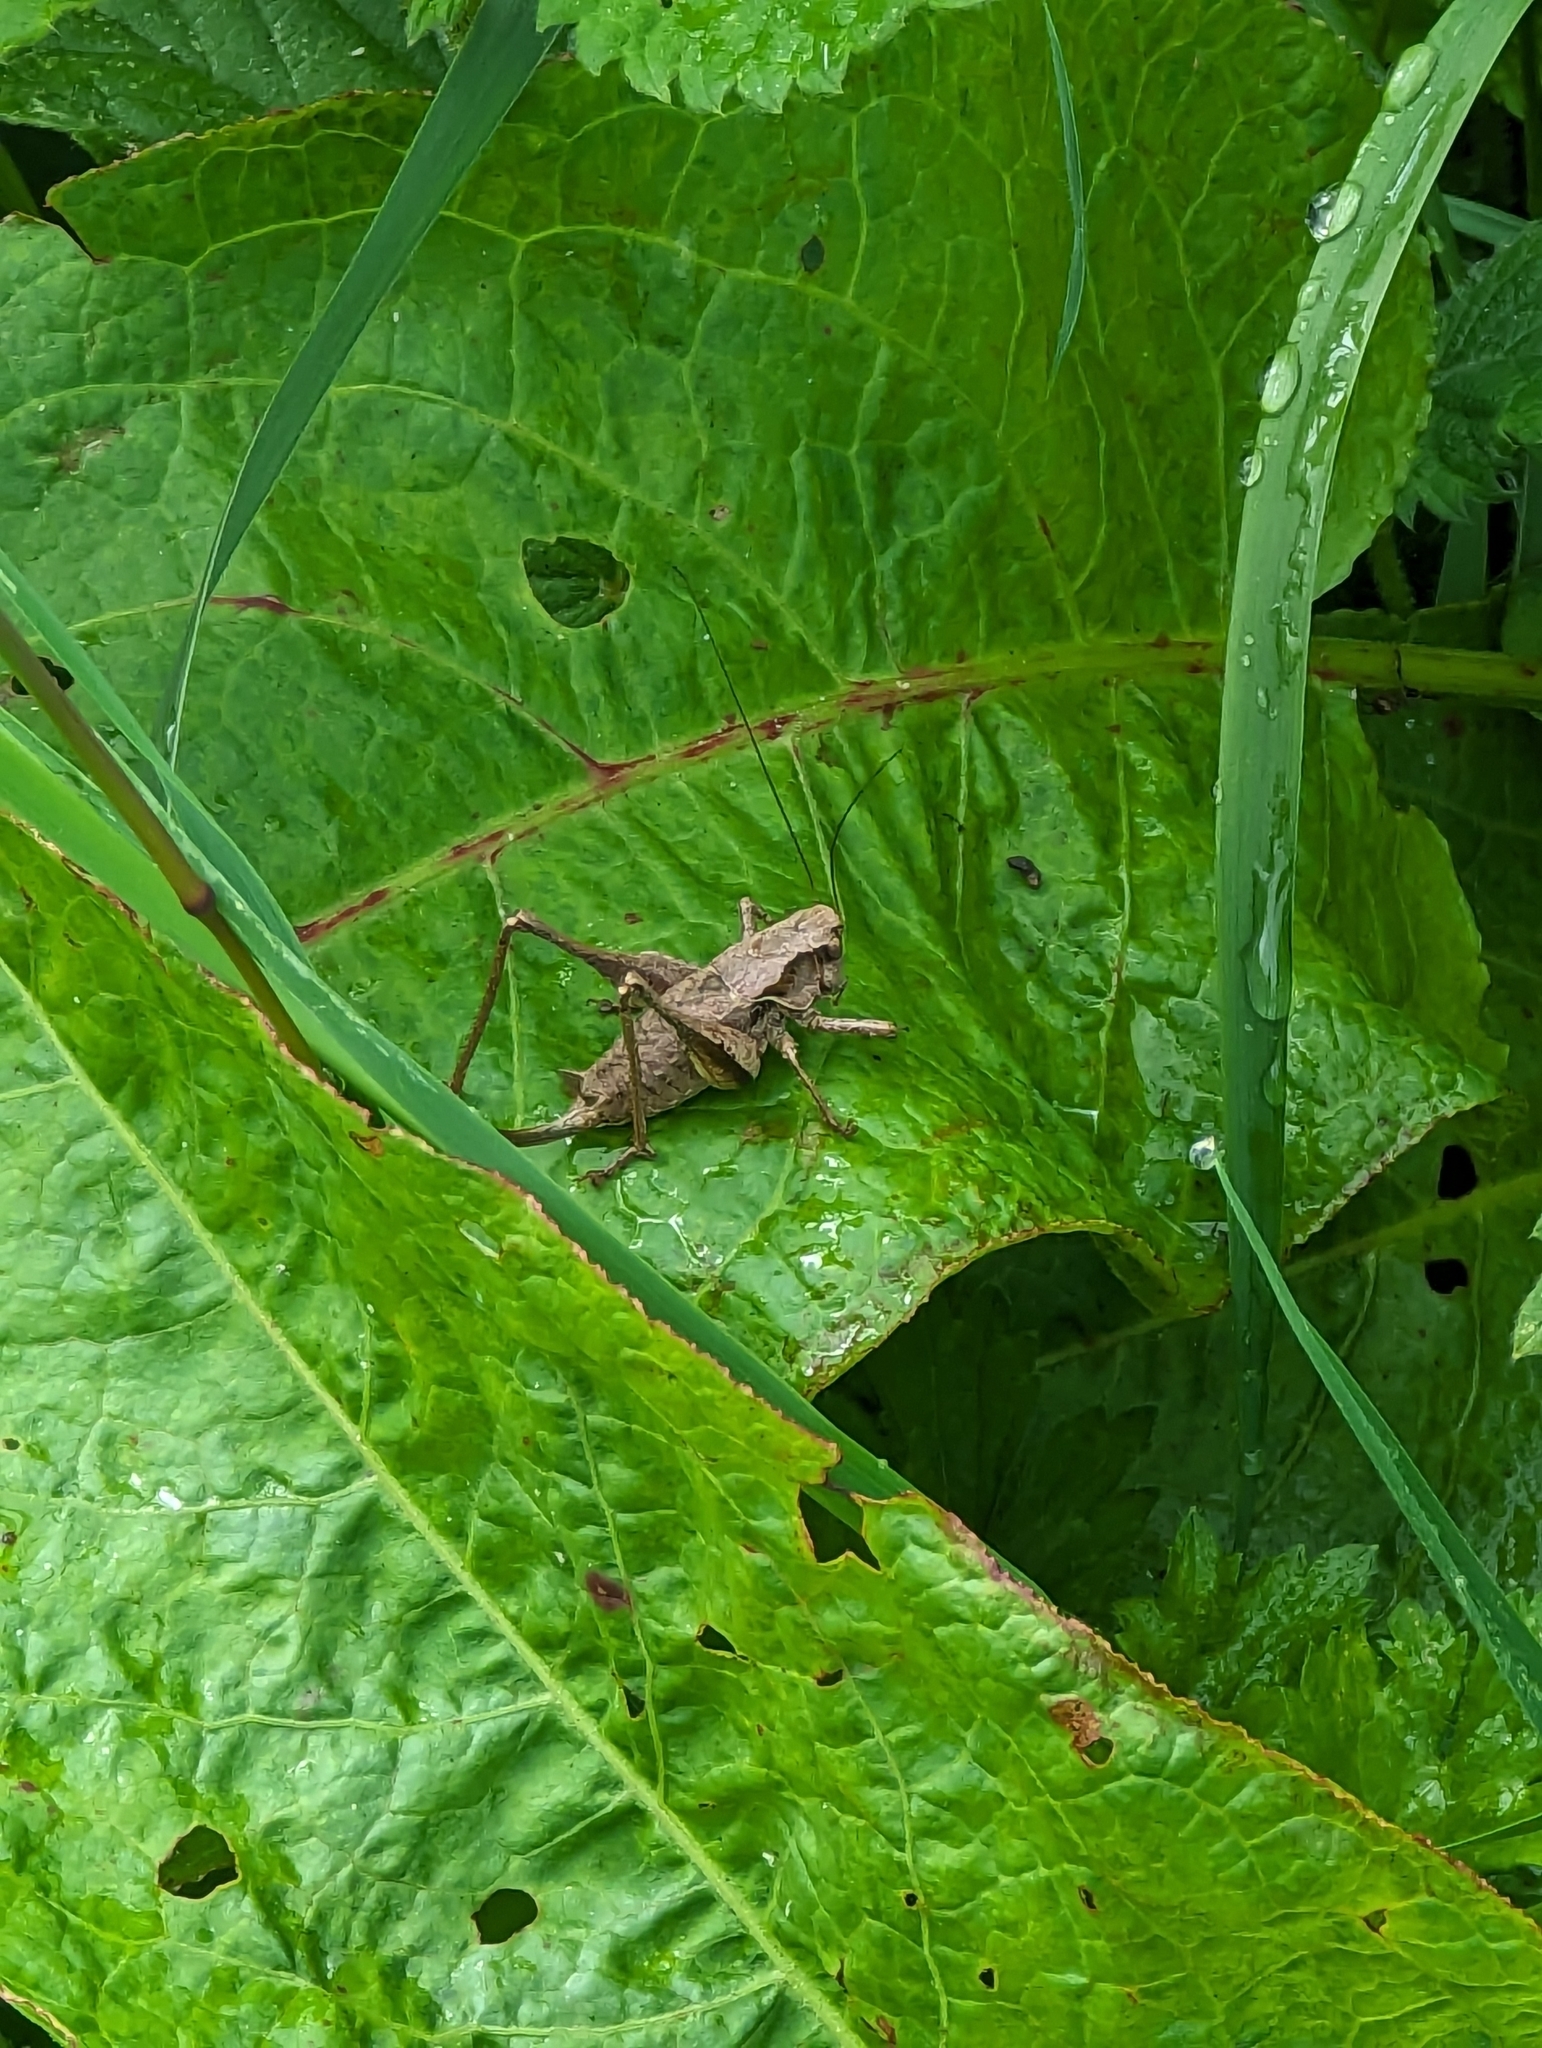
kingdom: Animalia
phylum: Arthropoda
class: Insecta
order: Orthoptera
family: Tettigoniidae
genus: Pholidoptera
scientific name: Pholidoptera griseoaptera
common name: Dark bush-cricket
